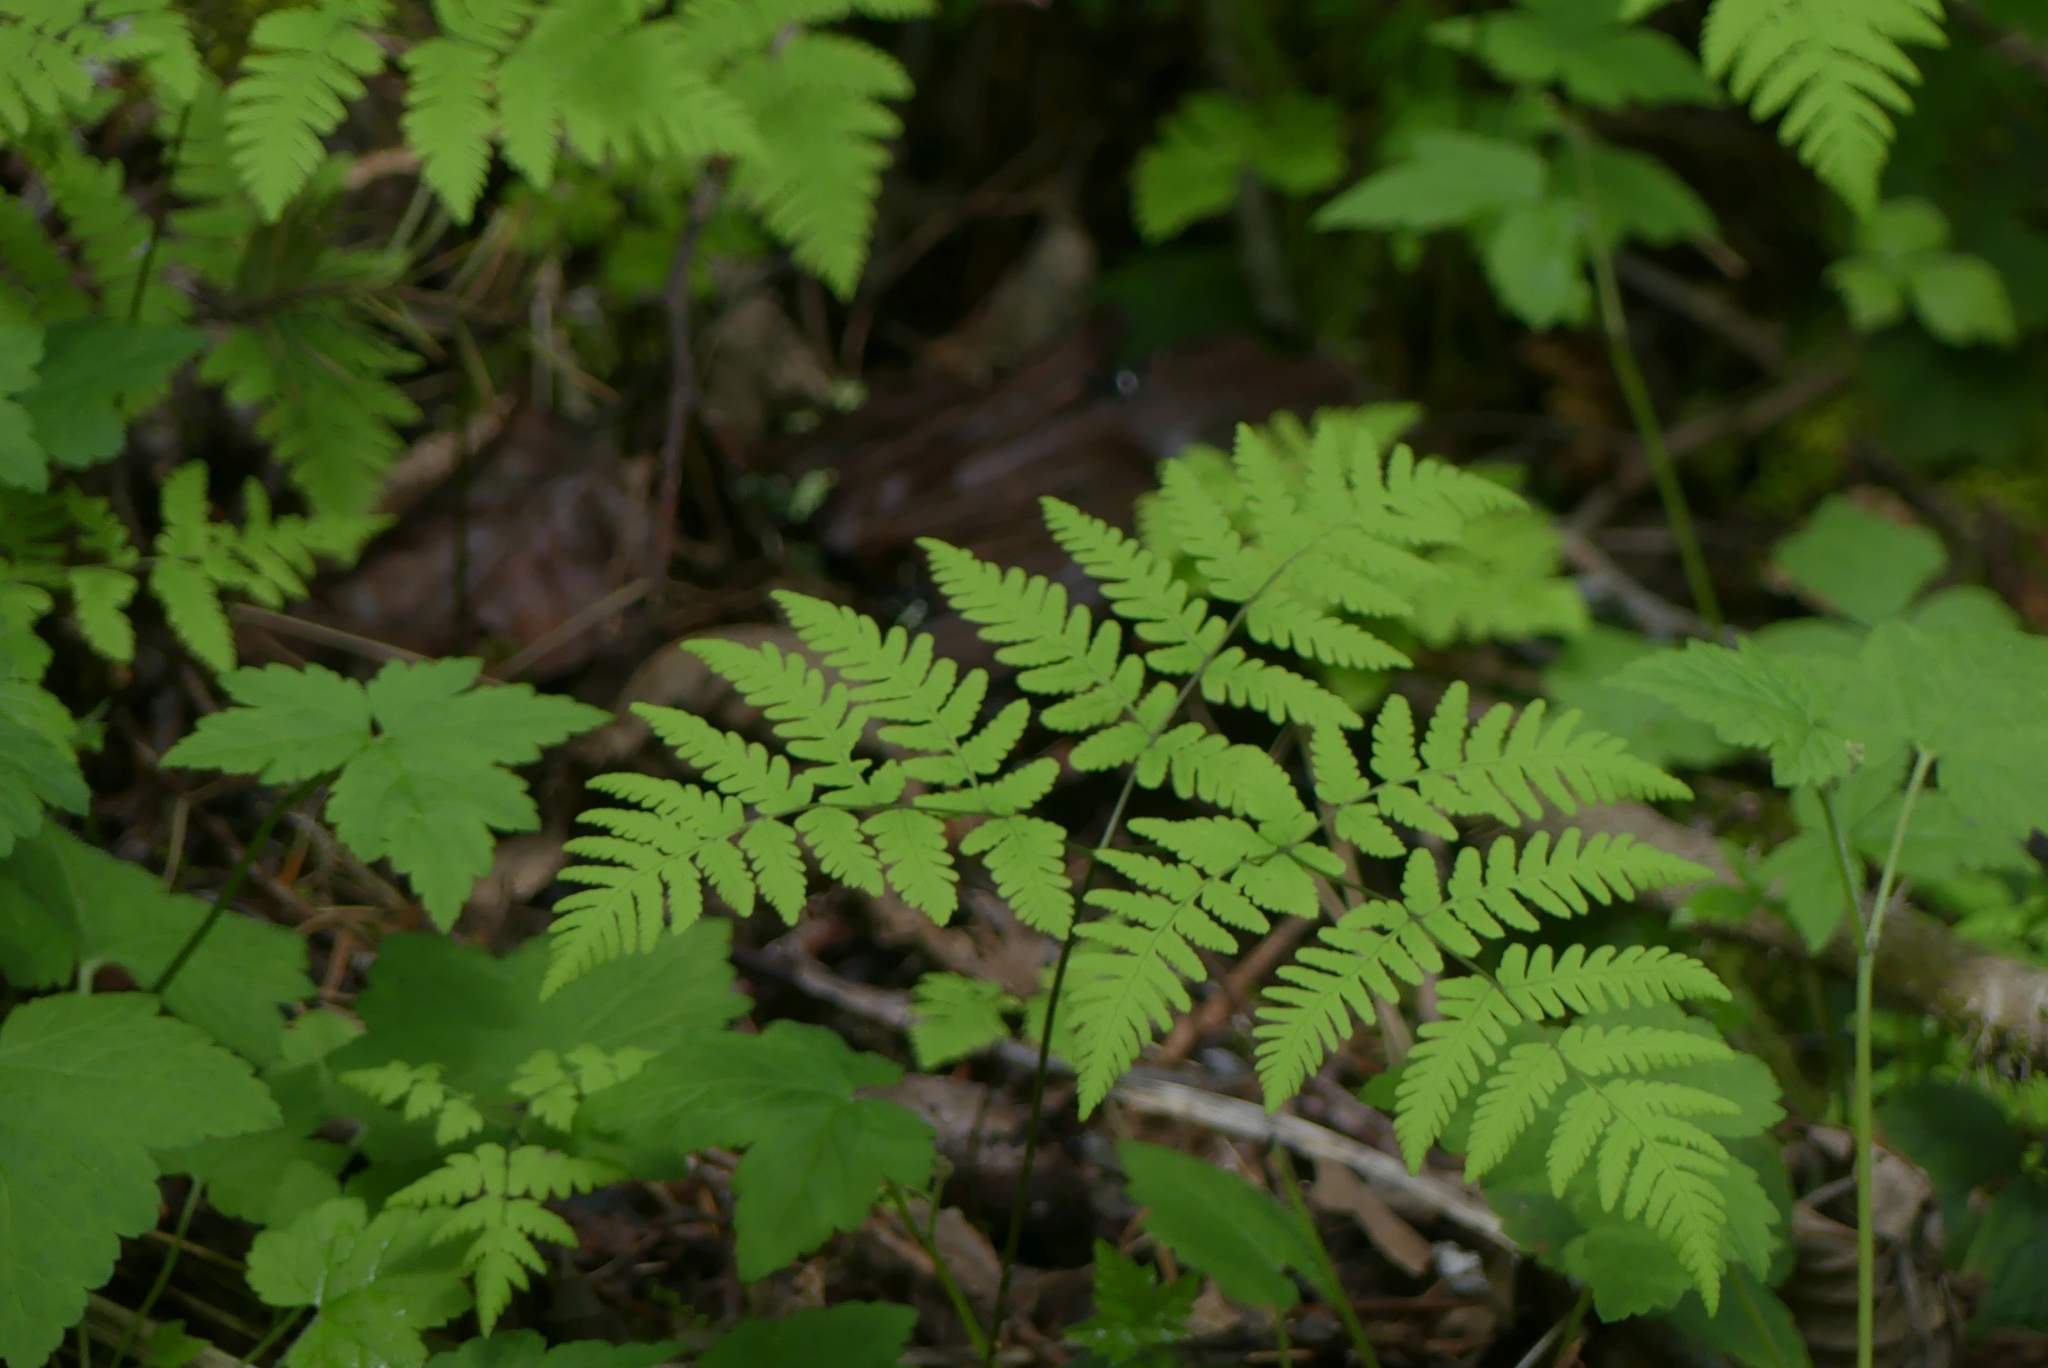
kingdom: Plantae
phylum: Tracheophyta
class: Polypodiopsida
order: Polypodiales
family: Cystopteridaceae
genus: Gymnocarpium
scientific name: Gymnocarpium disjunctum
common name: Western oak fern
